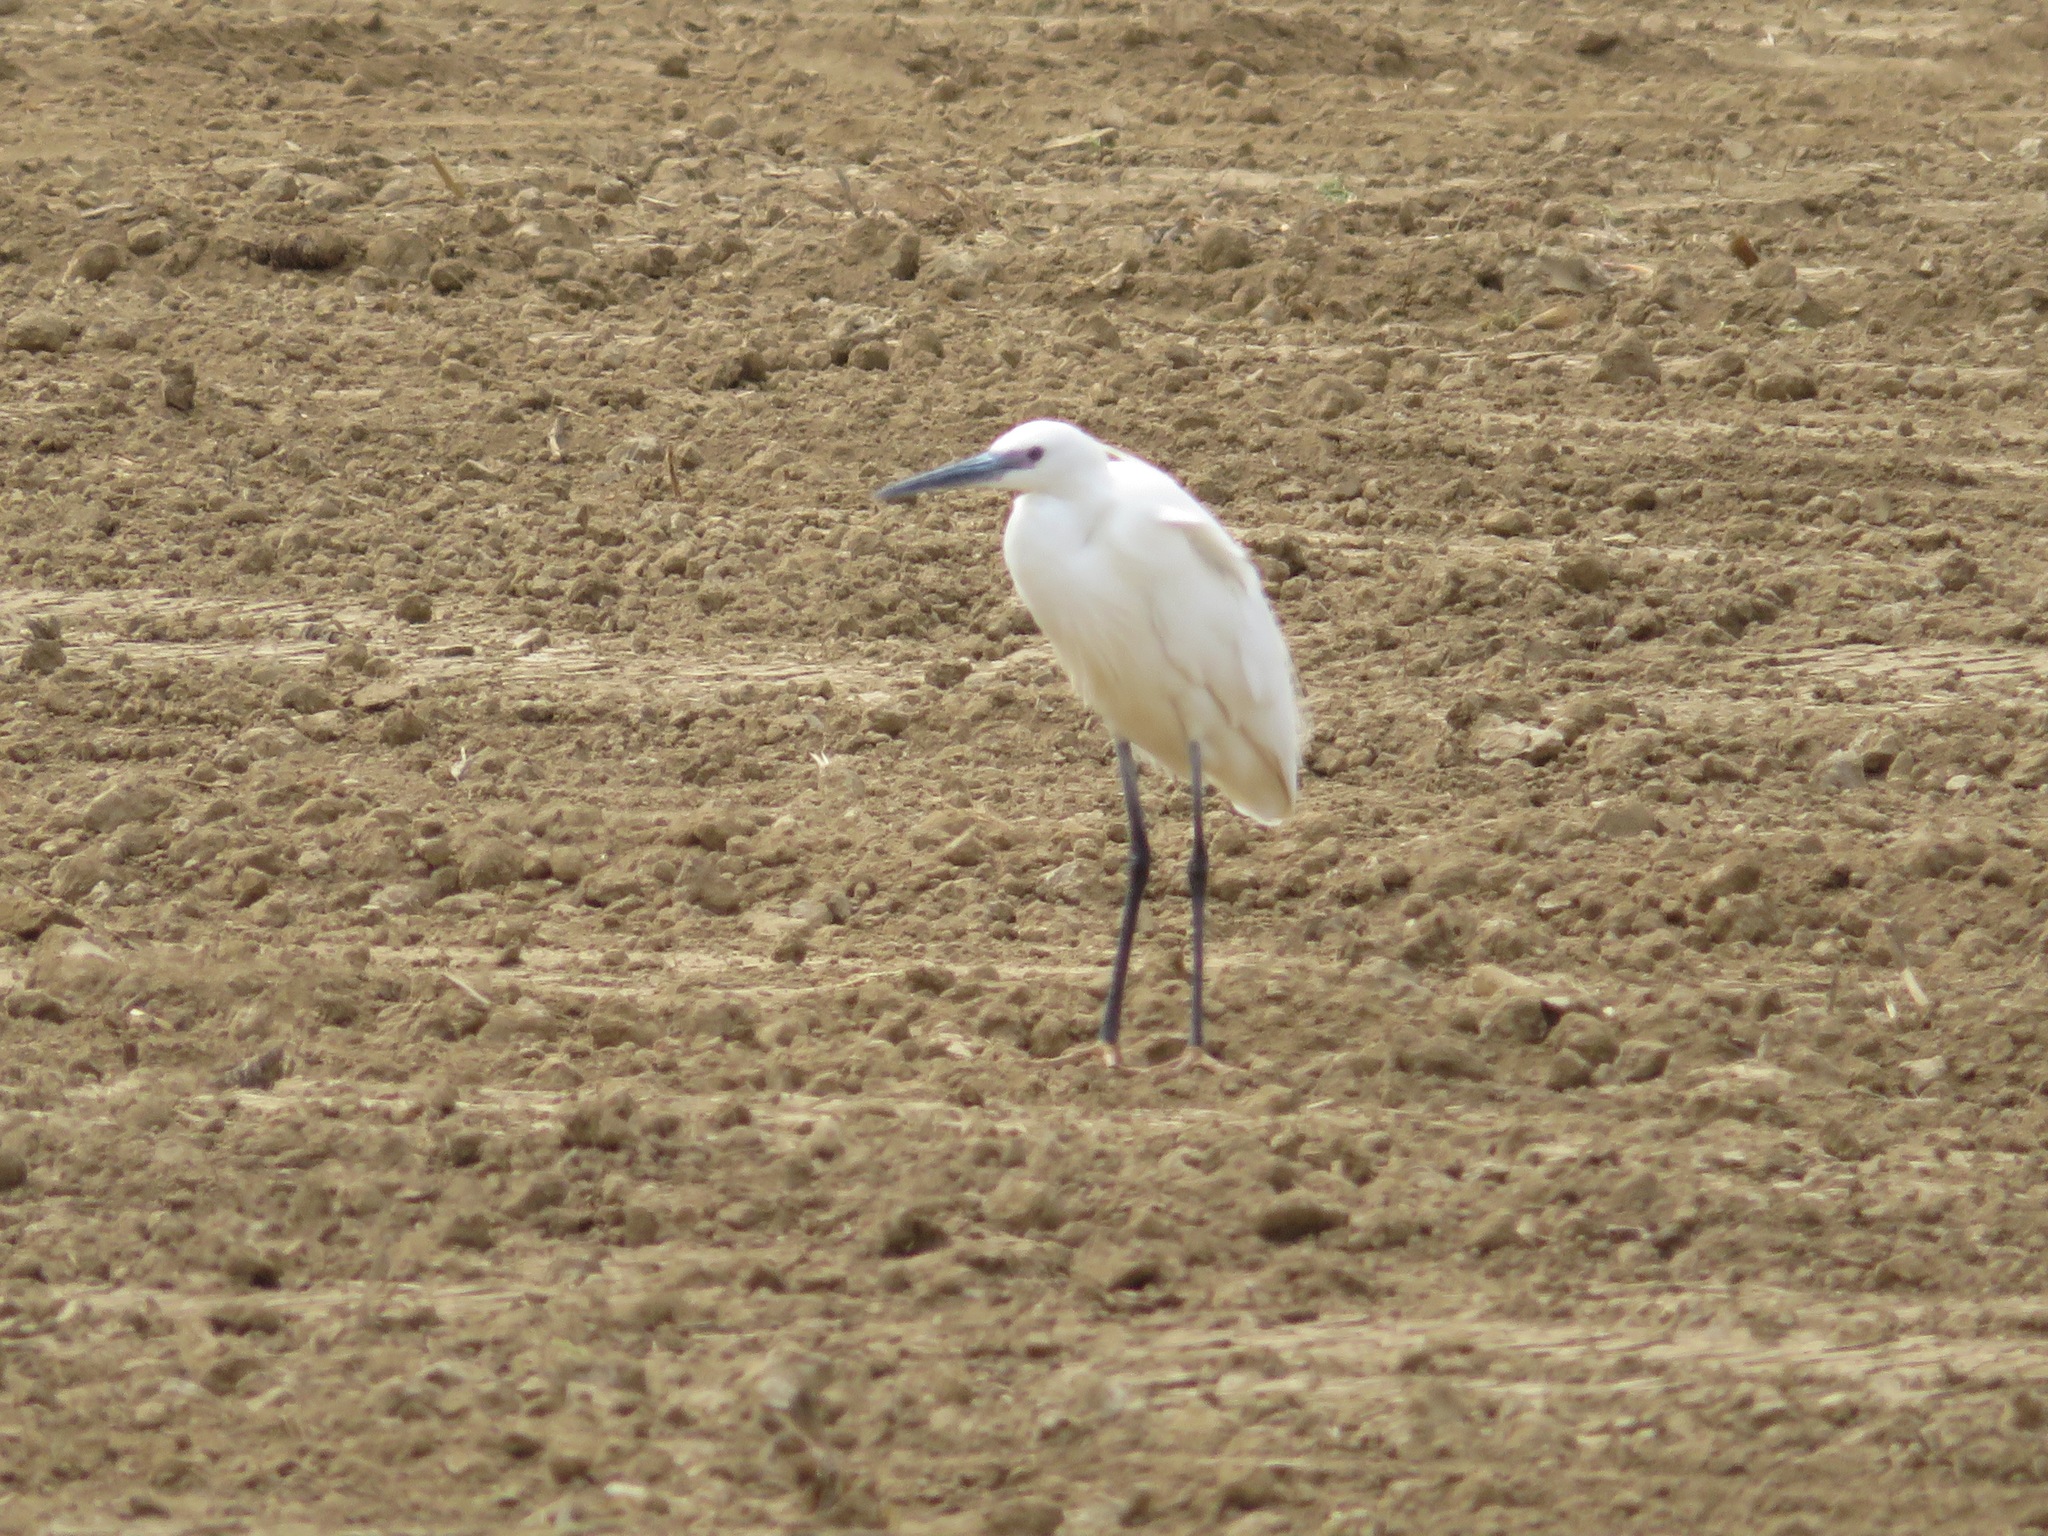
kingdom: Animalia
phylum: Chordata
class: Aves
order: Pelecaniformes
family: Ardeidae
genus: Egretta
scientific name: Egretta garzetta
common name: Little egret
